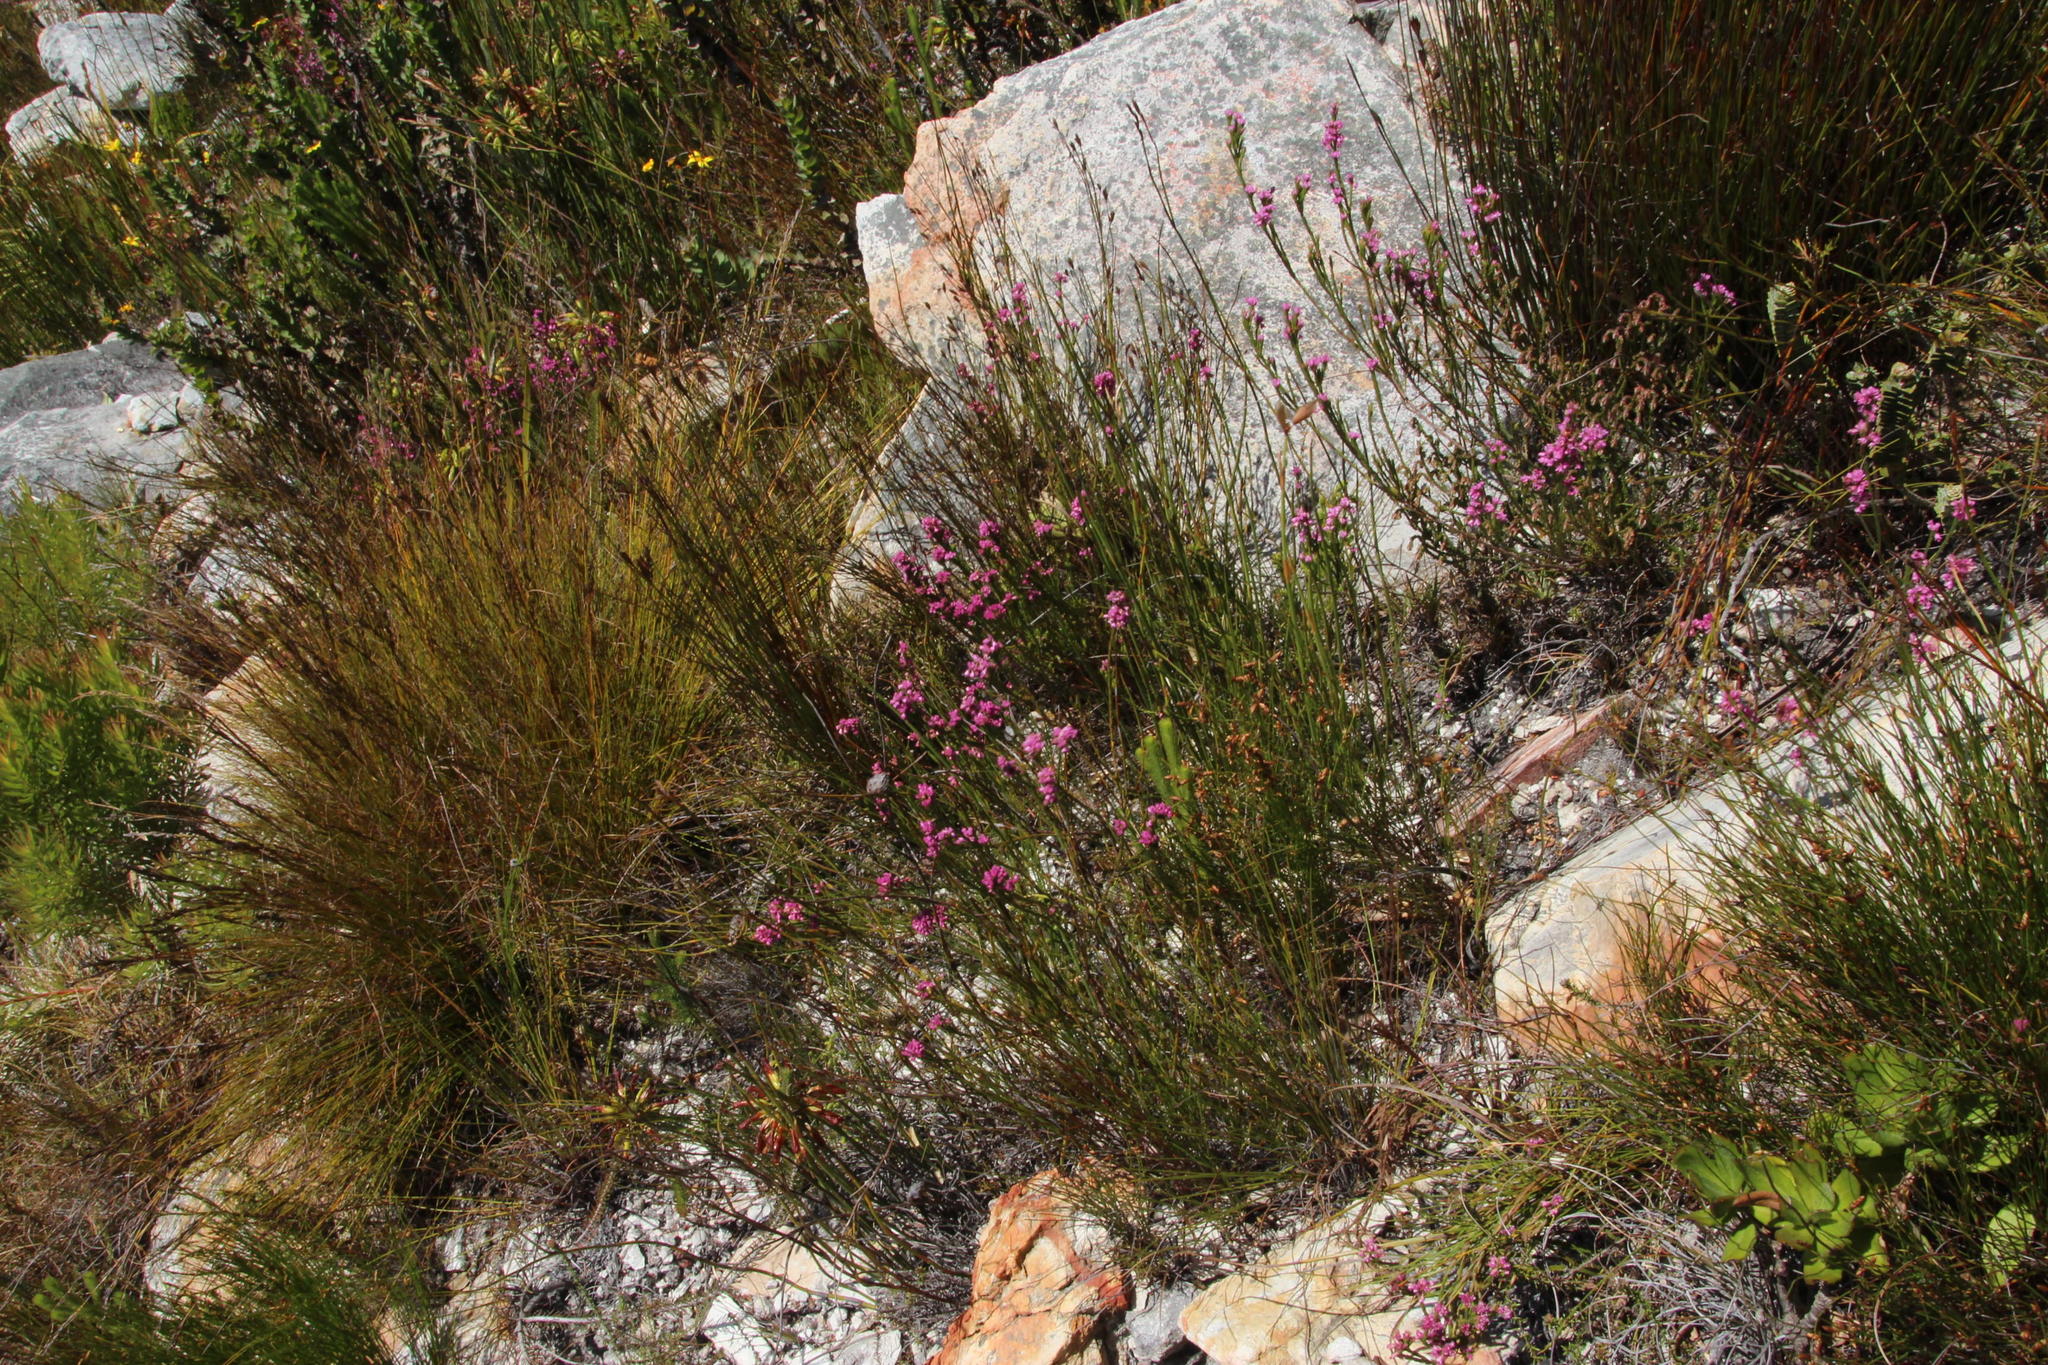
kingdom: Plantae
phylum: Tracheophyta
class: Magnoliopsida
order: Ericales
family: Ericaceae
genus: Erica
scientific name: Erica corifolia
